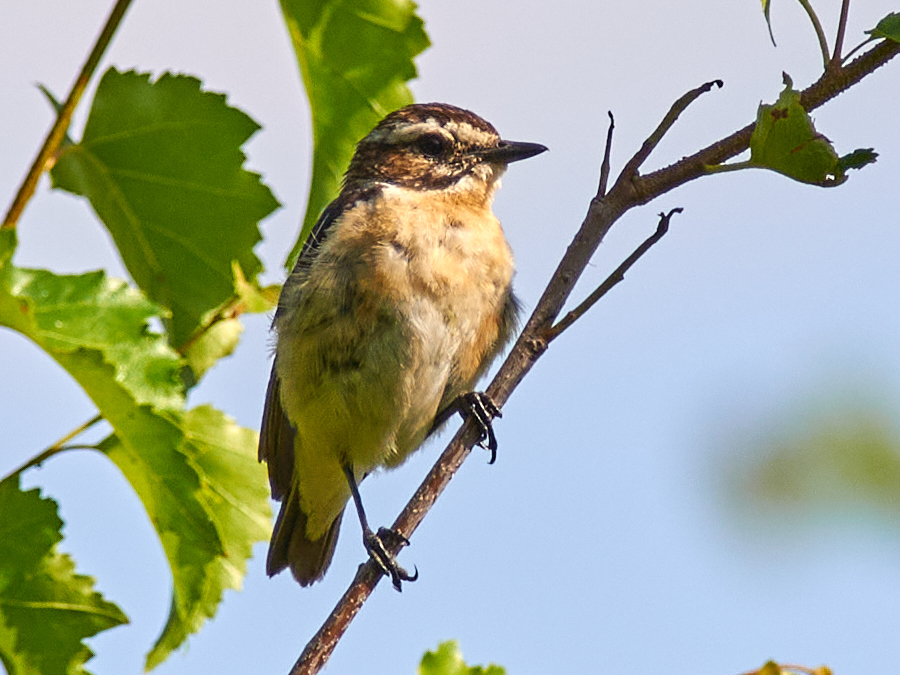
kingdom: Animalia
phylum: Chordata
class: Aves
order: Passeriformes
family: Muscicapidae
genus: Saxicola
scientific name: Saxicola rubetra
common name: Whinchat
